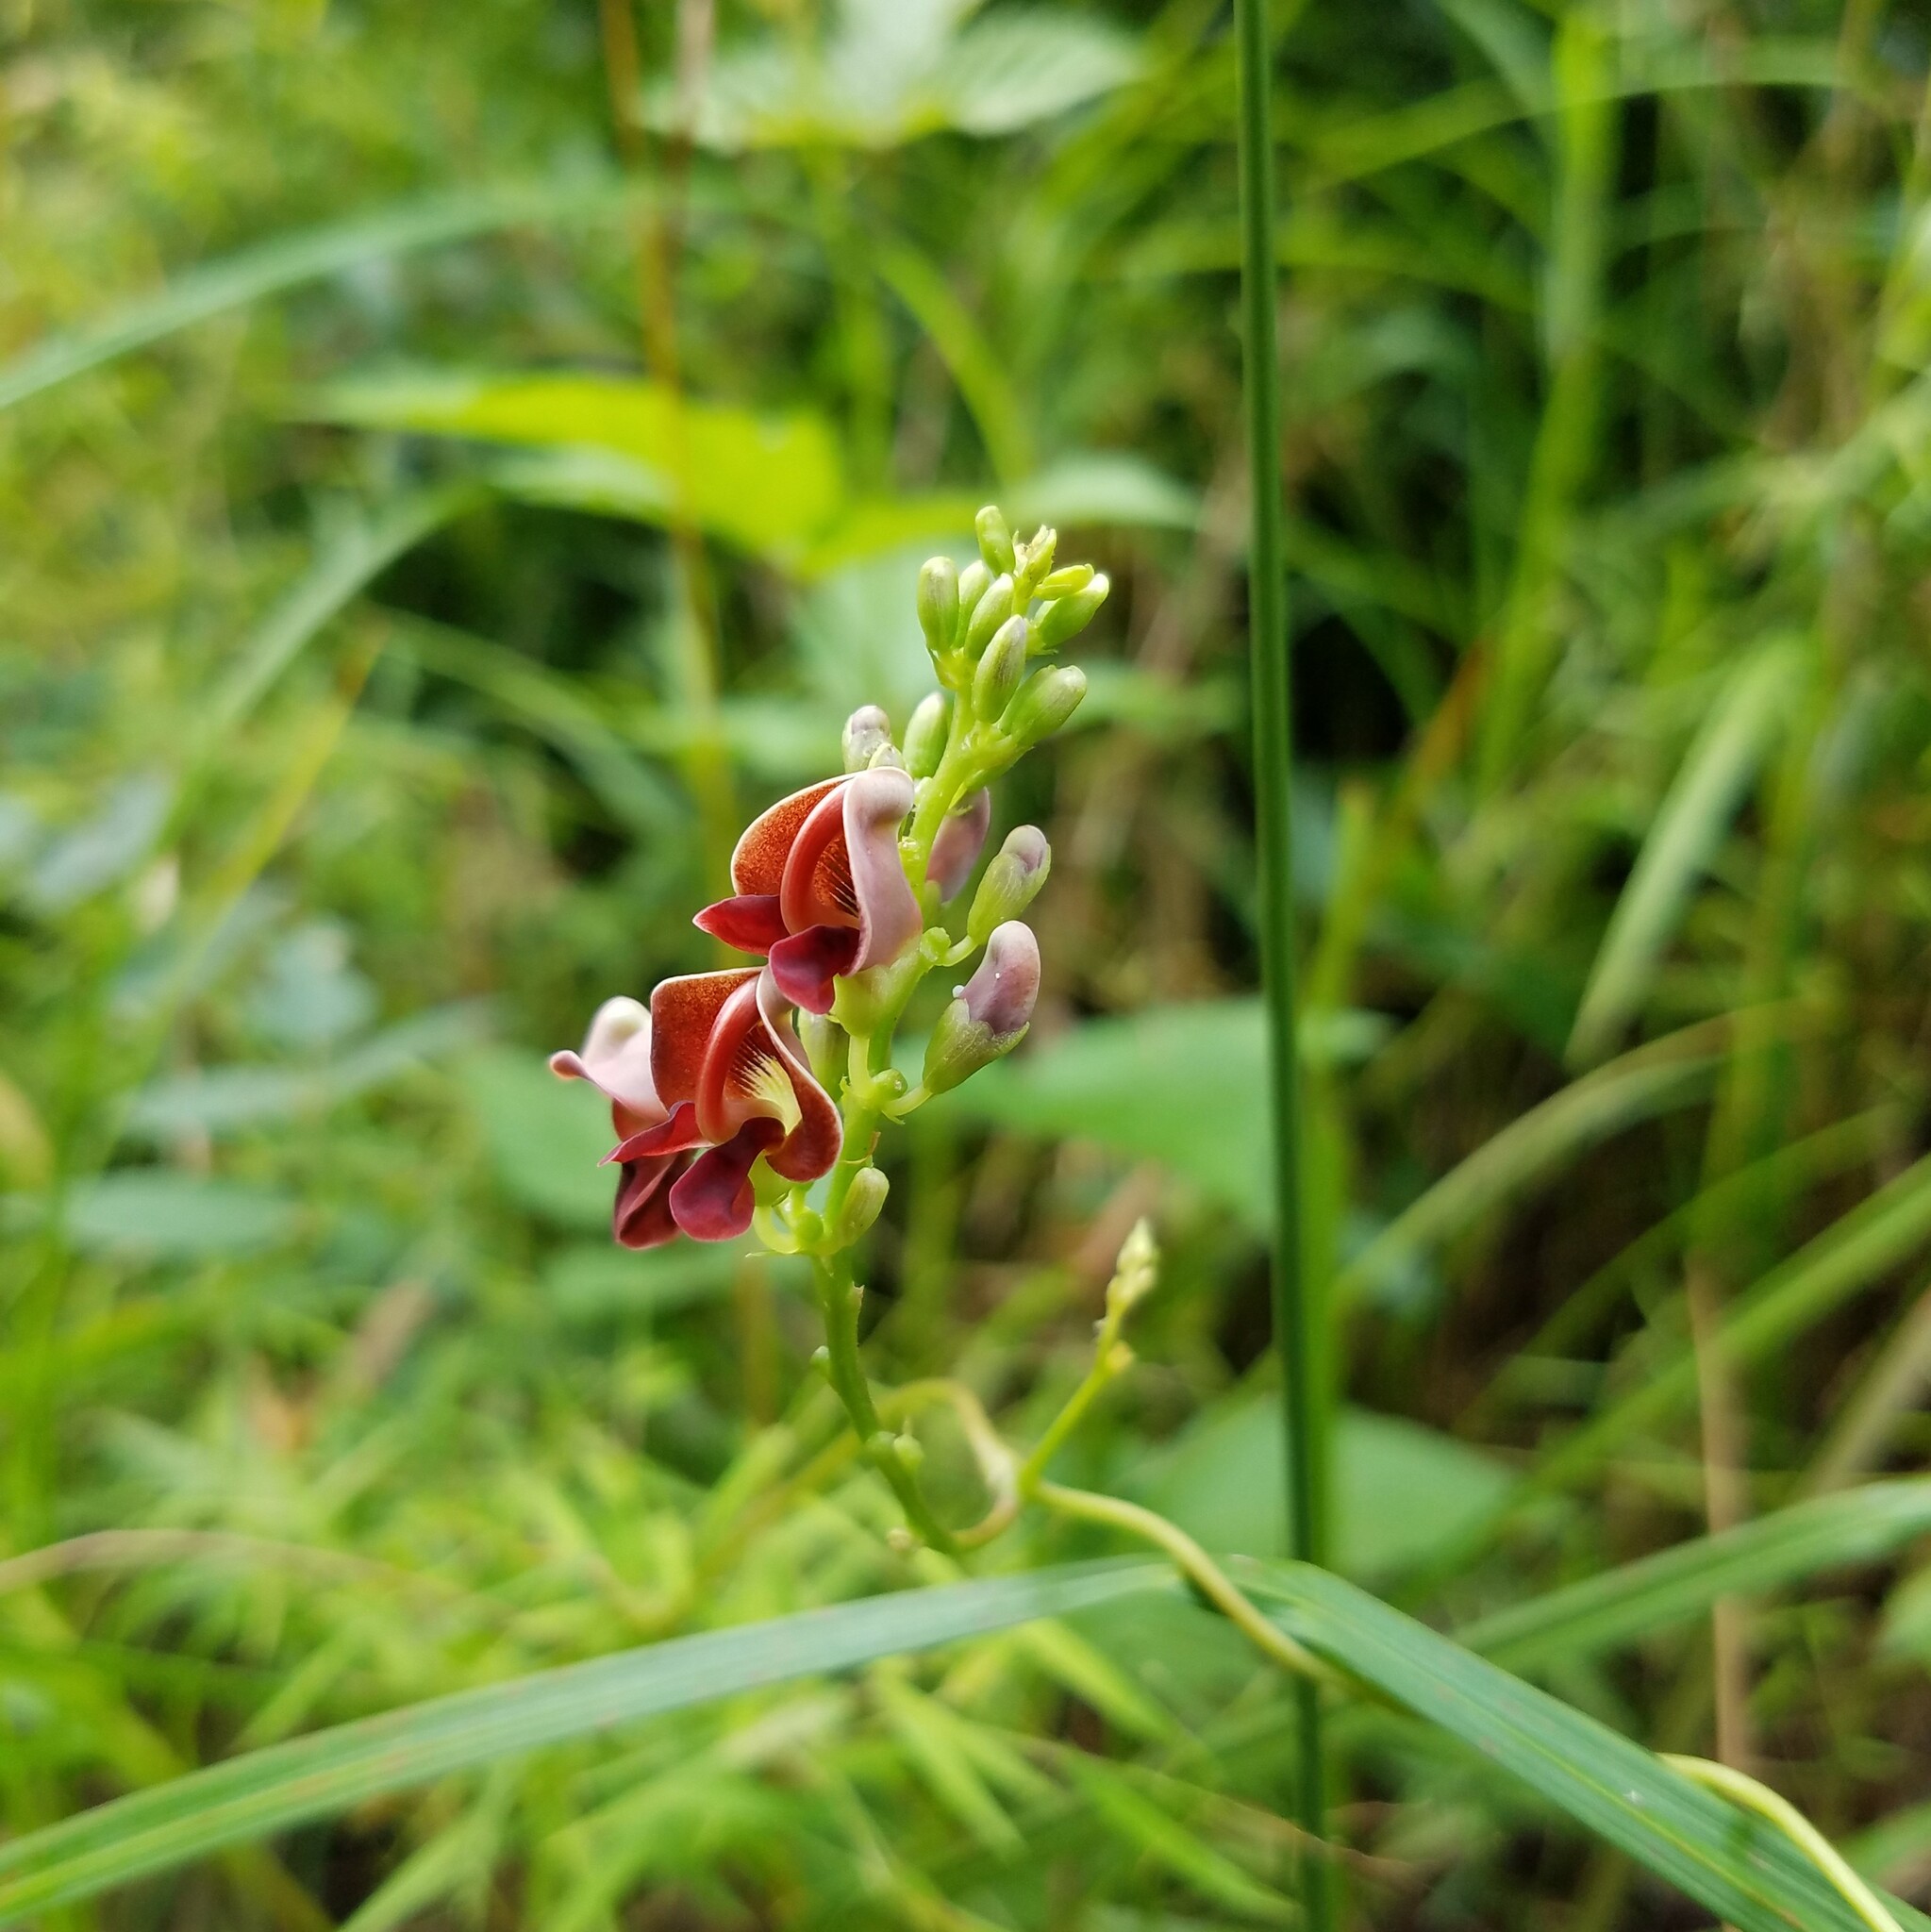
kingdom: Plantae
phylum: Tracheophyta
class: Magnoliopsida
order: Fabales
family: Fabaceae
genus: Apios
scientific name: Apios americana
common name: American potato-bean
